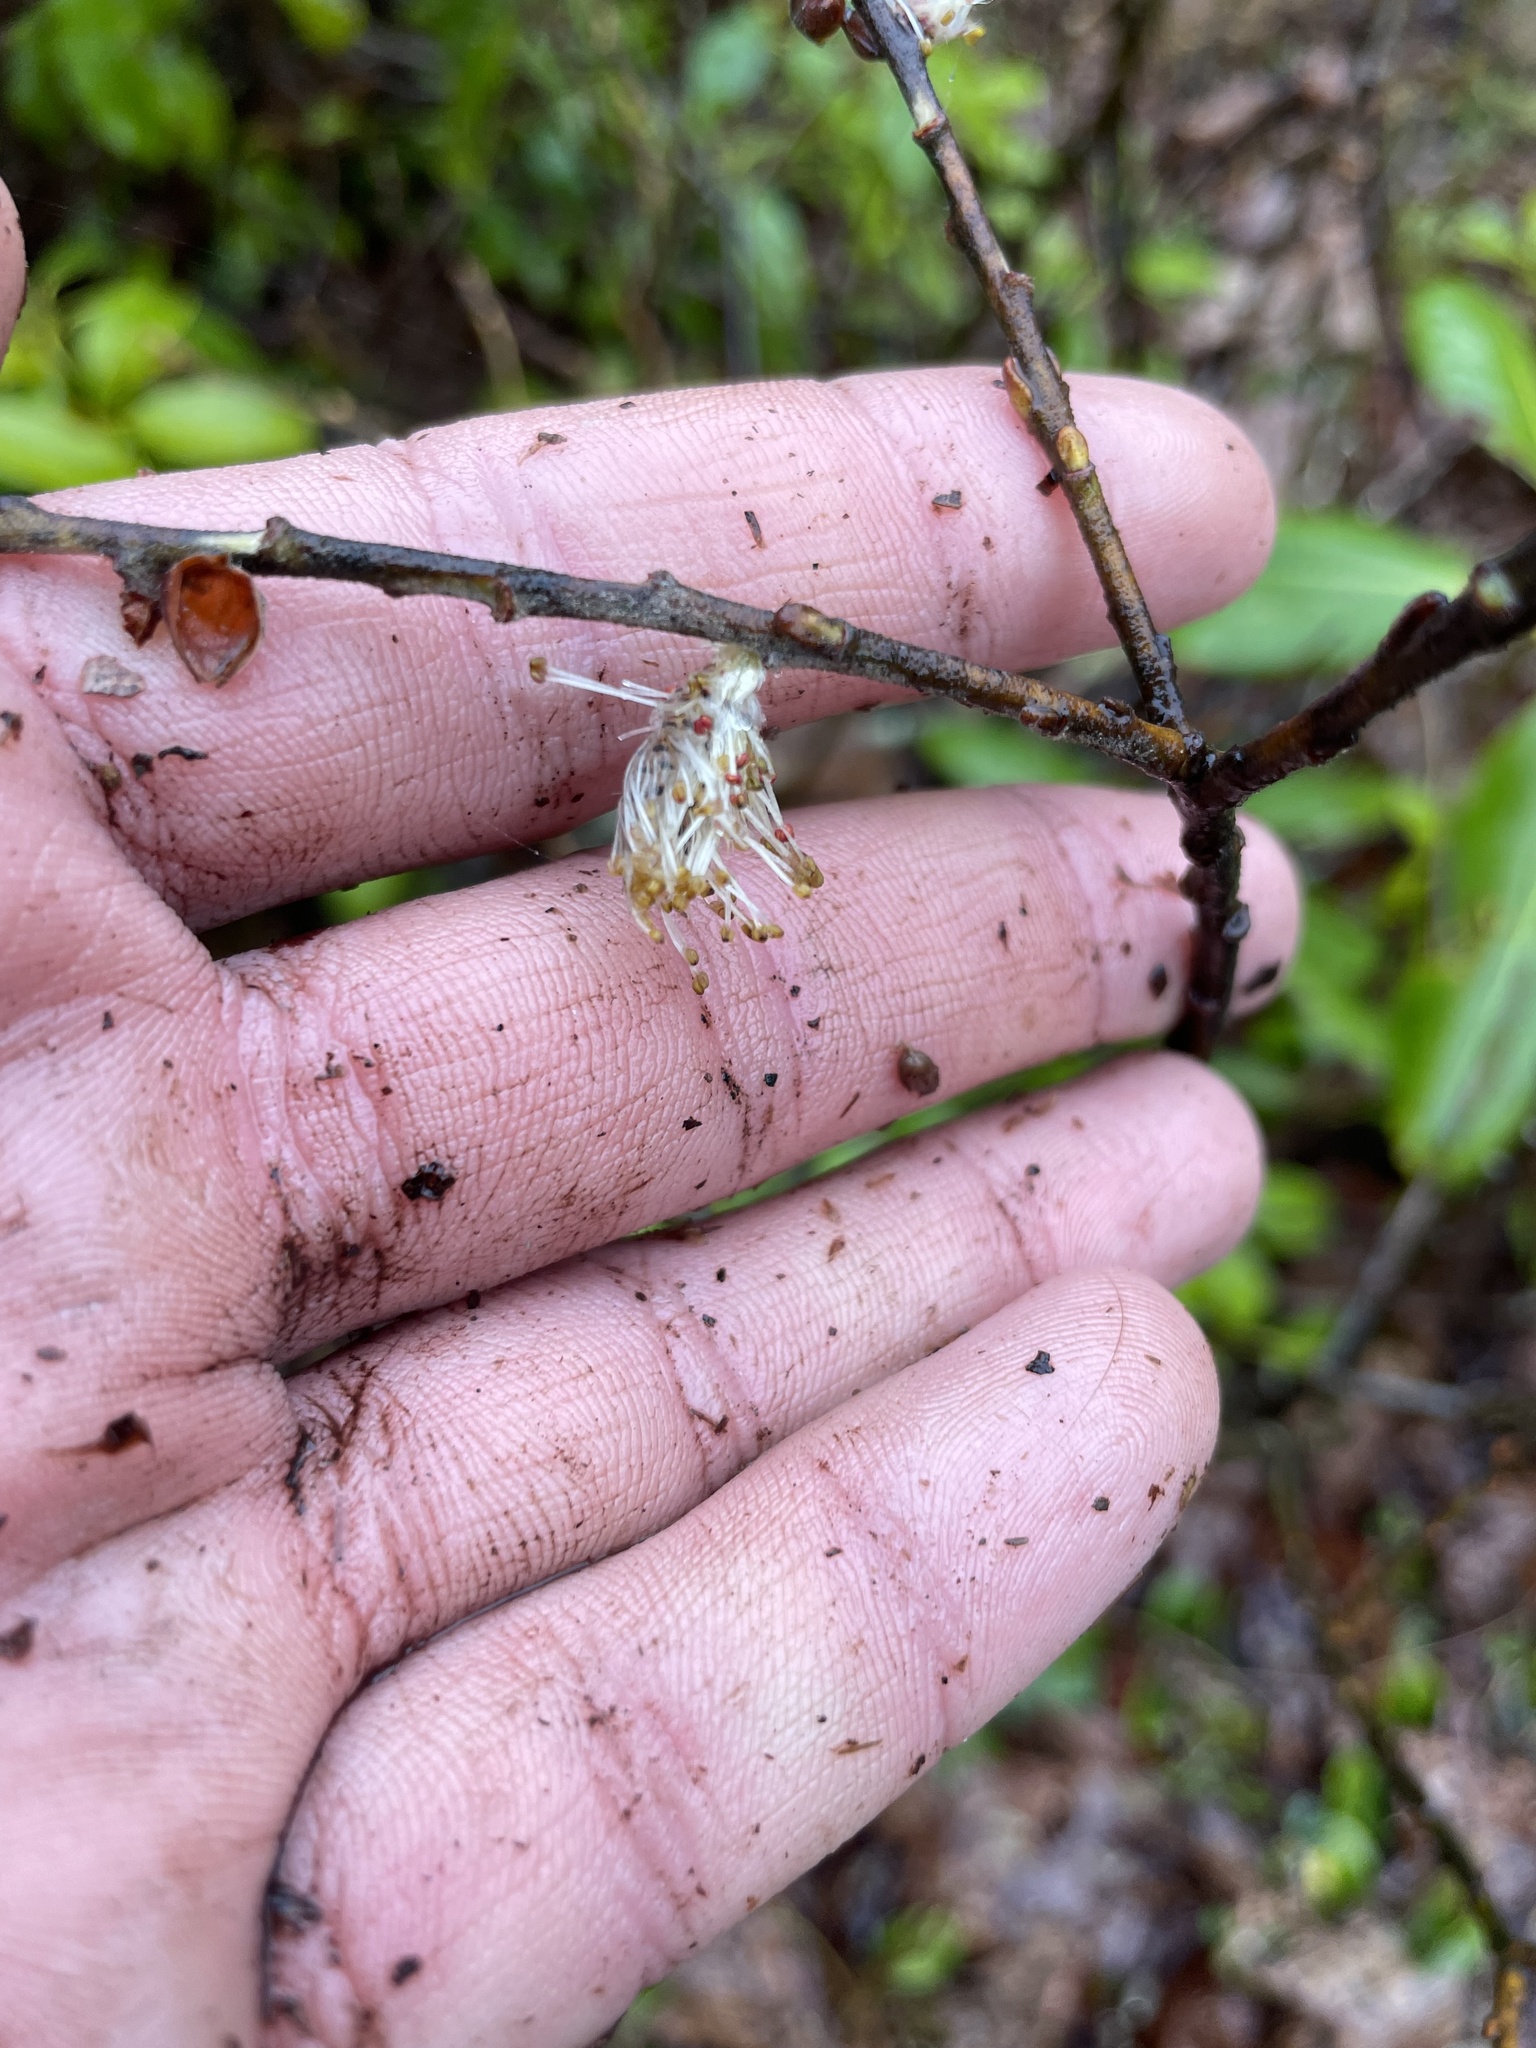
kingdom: Plantae
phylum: Tracheophyta
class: Magnoliopsida
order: Malpighiales
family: Salicaceae
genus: Salix
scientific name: Salix humilis
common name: Prairie willow
